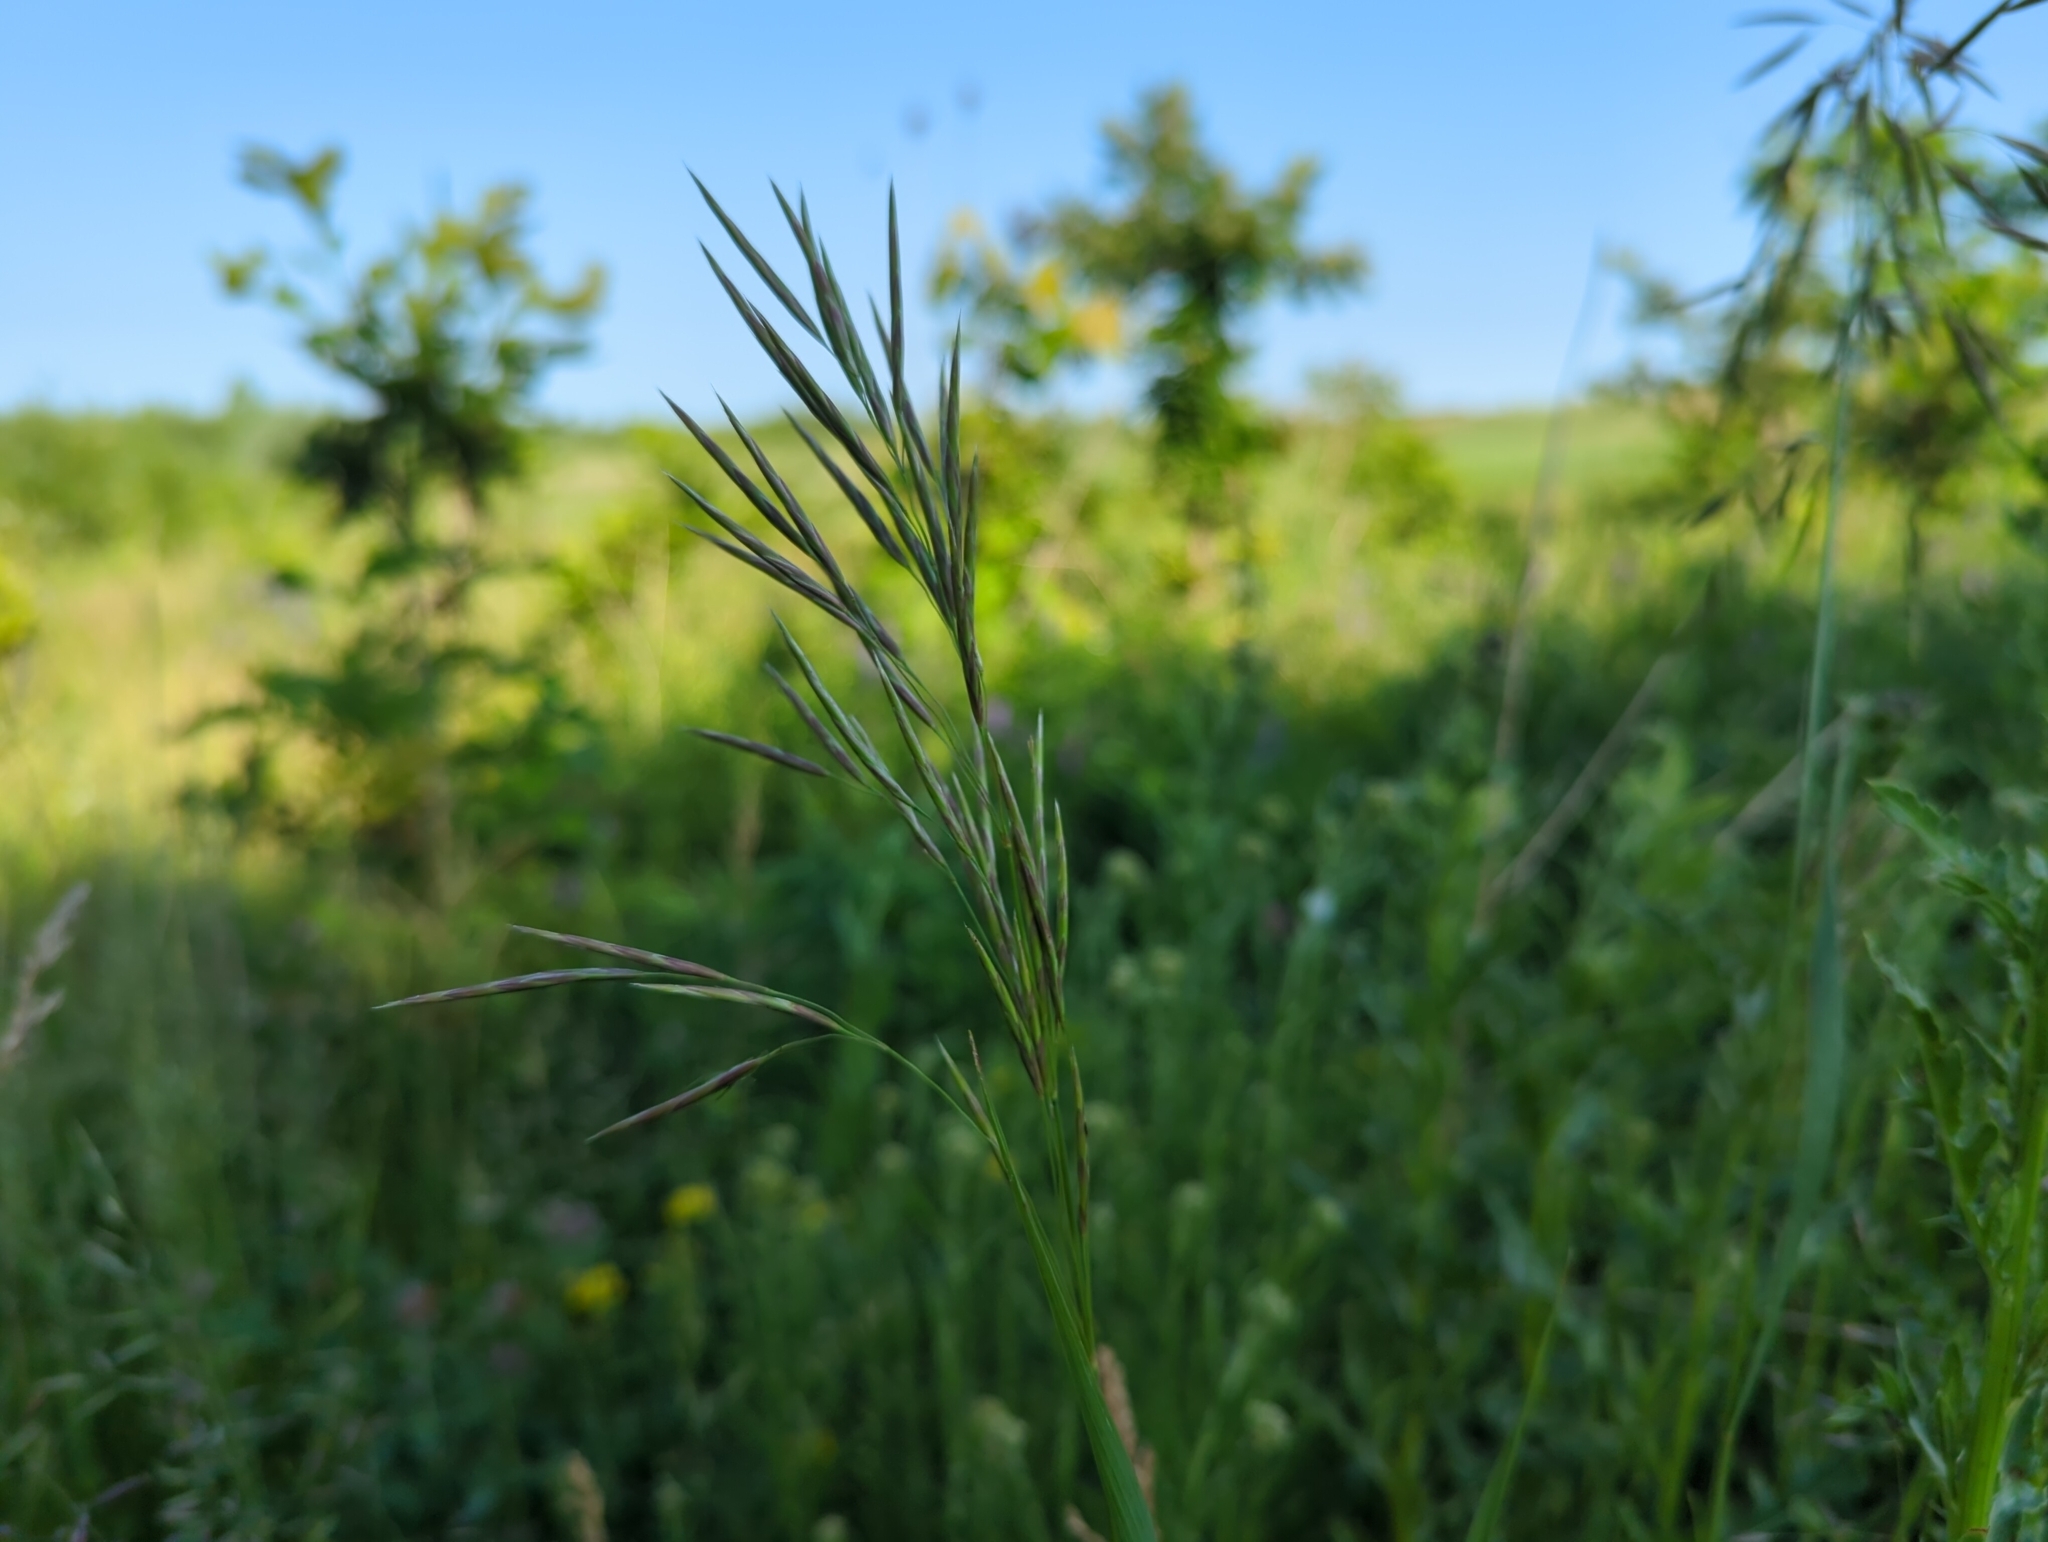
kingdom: Plantae
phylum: Tracheophyta
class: Liliopsida
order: Poales
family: Poaceae
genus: Bromus
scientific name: Bromus inermis
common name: Smooth brome
